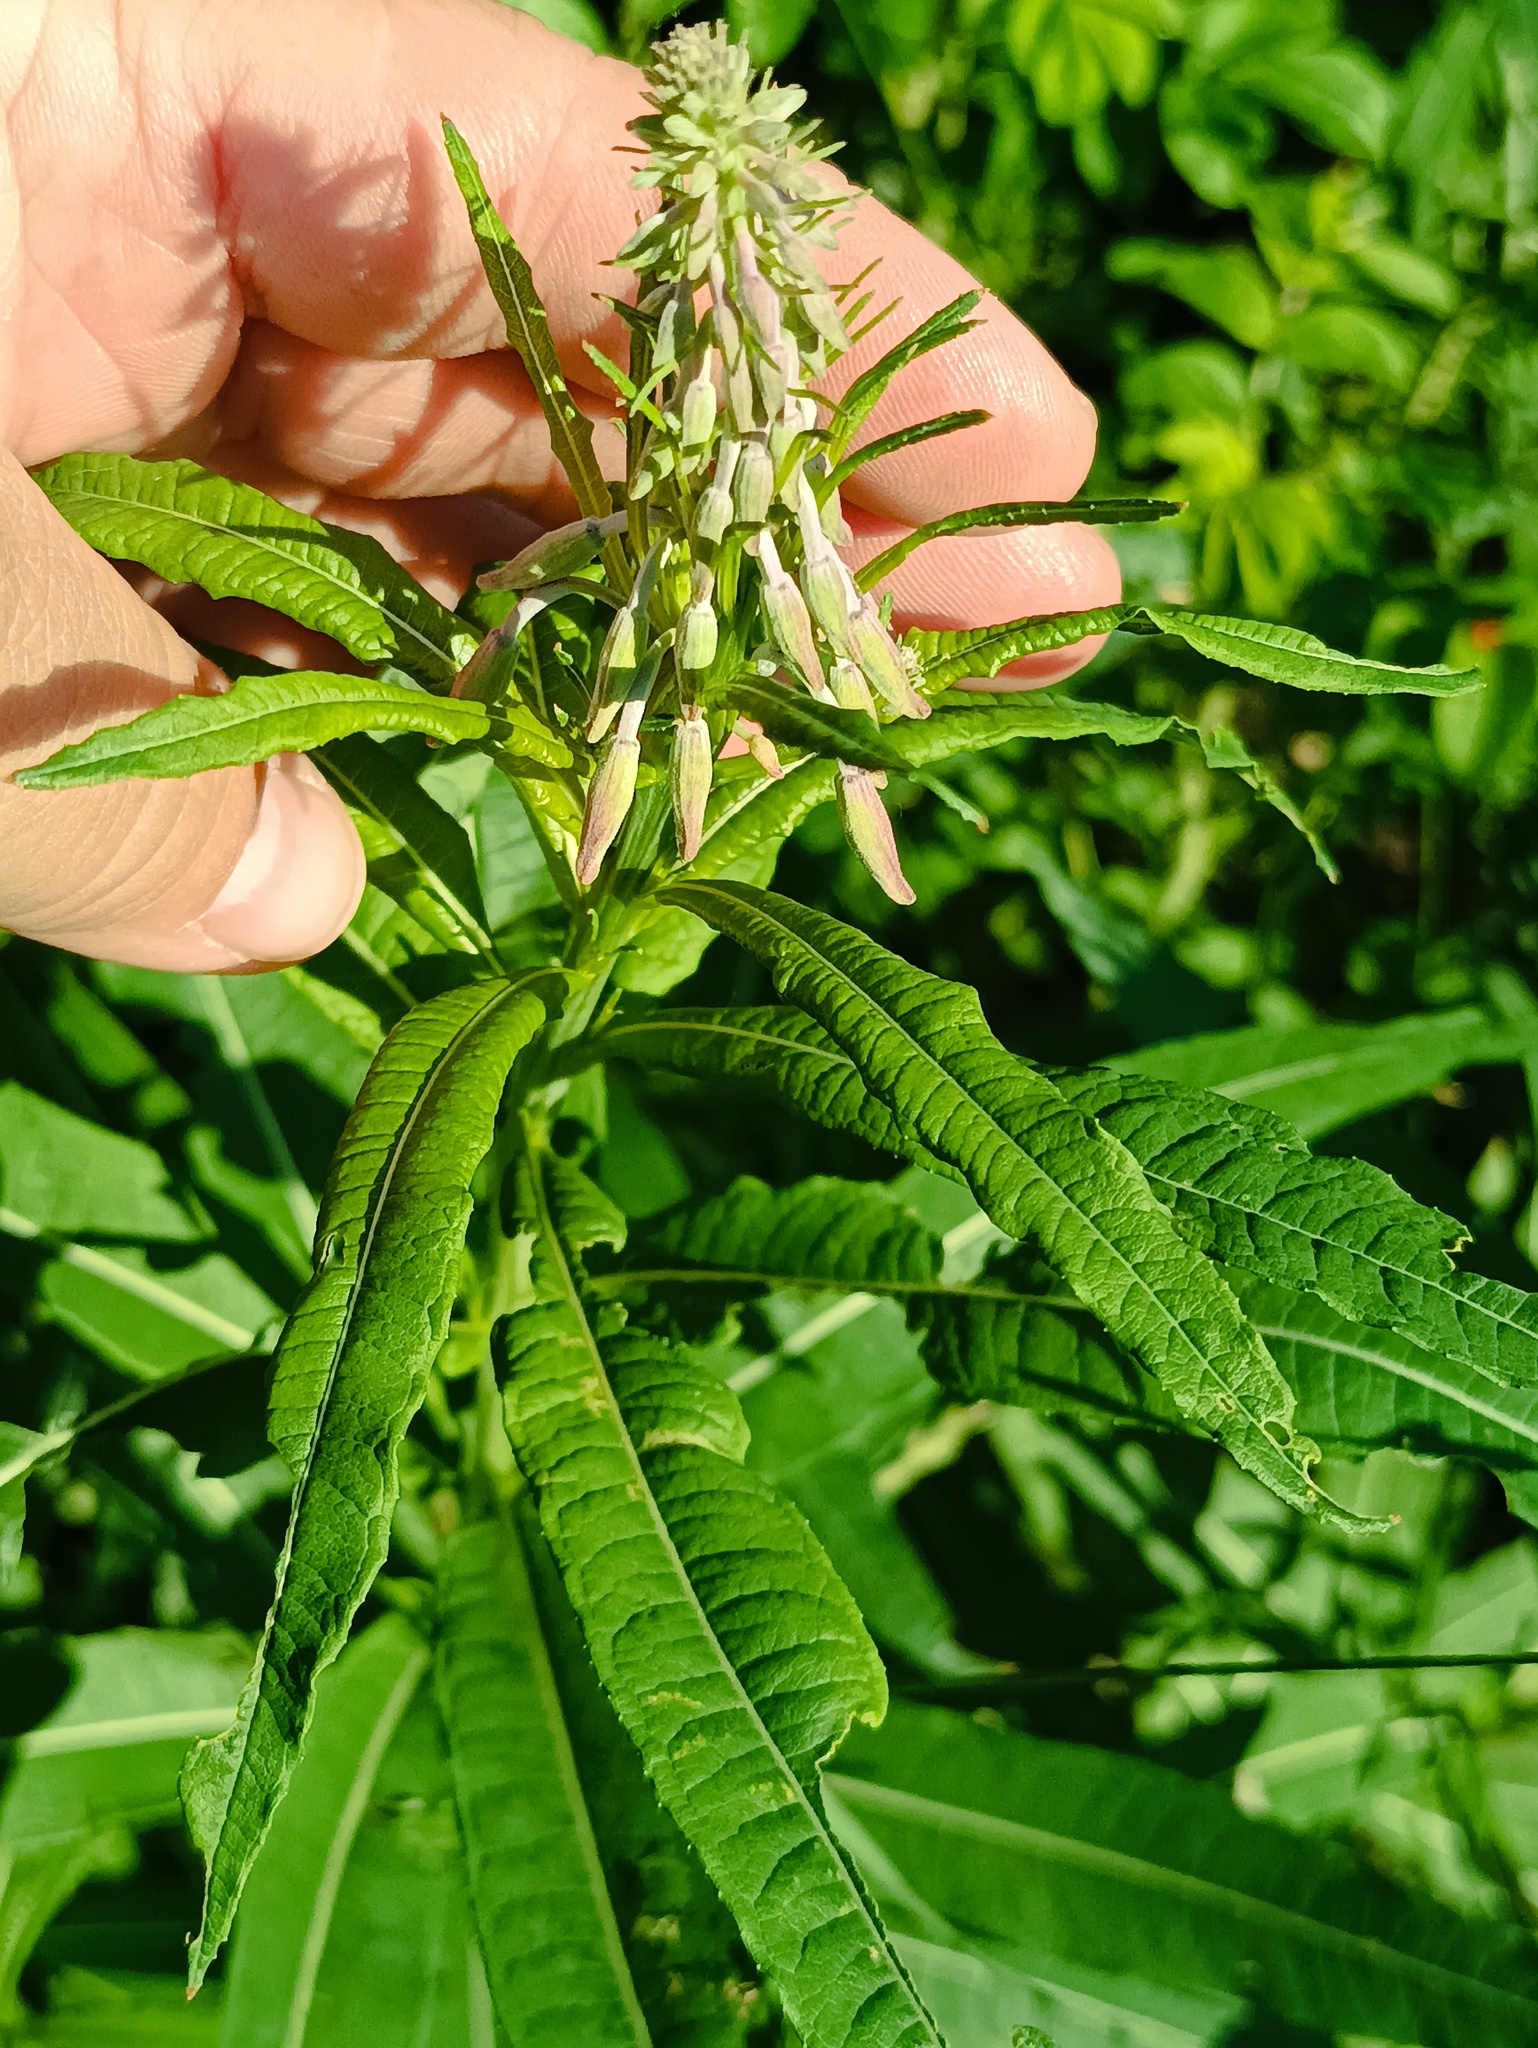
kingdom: Plantae
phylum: Tracheophyta
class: Magnoliopsida
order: Myrtales
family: Onagraceae
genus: Chamaenerion
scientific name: Chamaenerion angustifolium
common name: Fireweed
